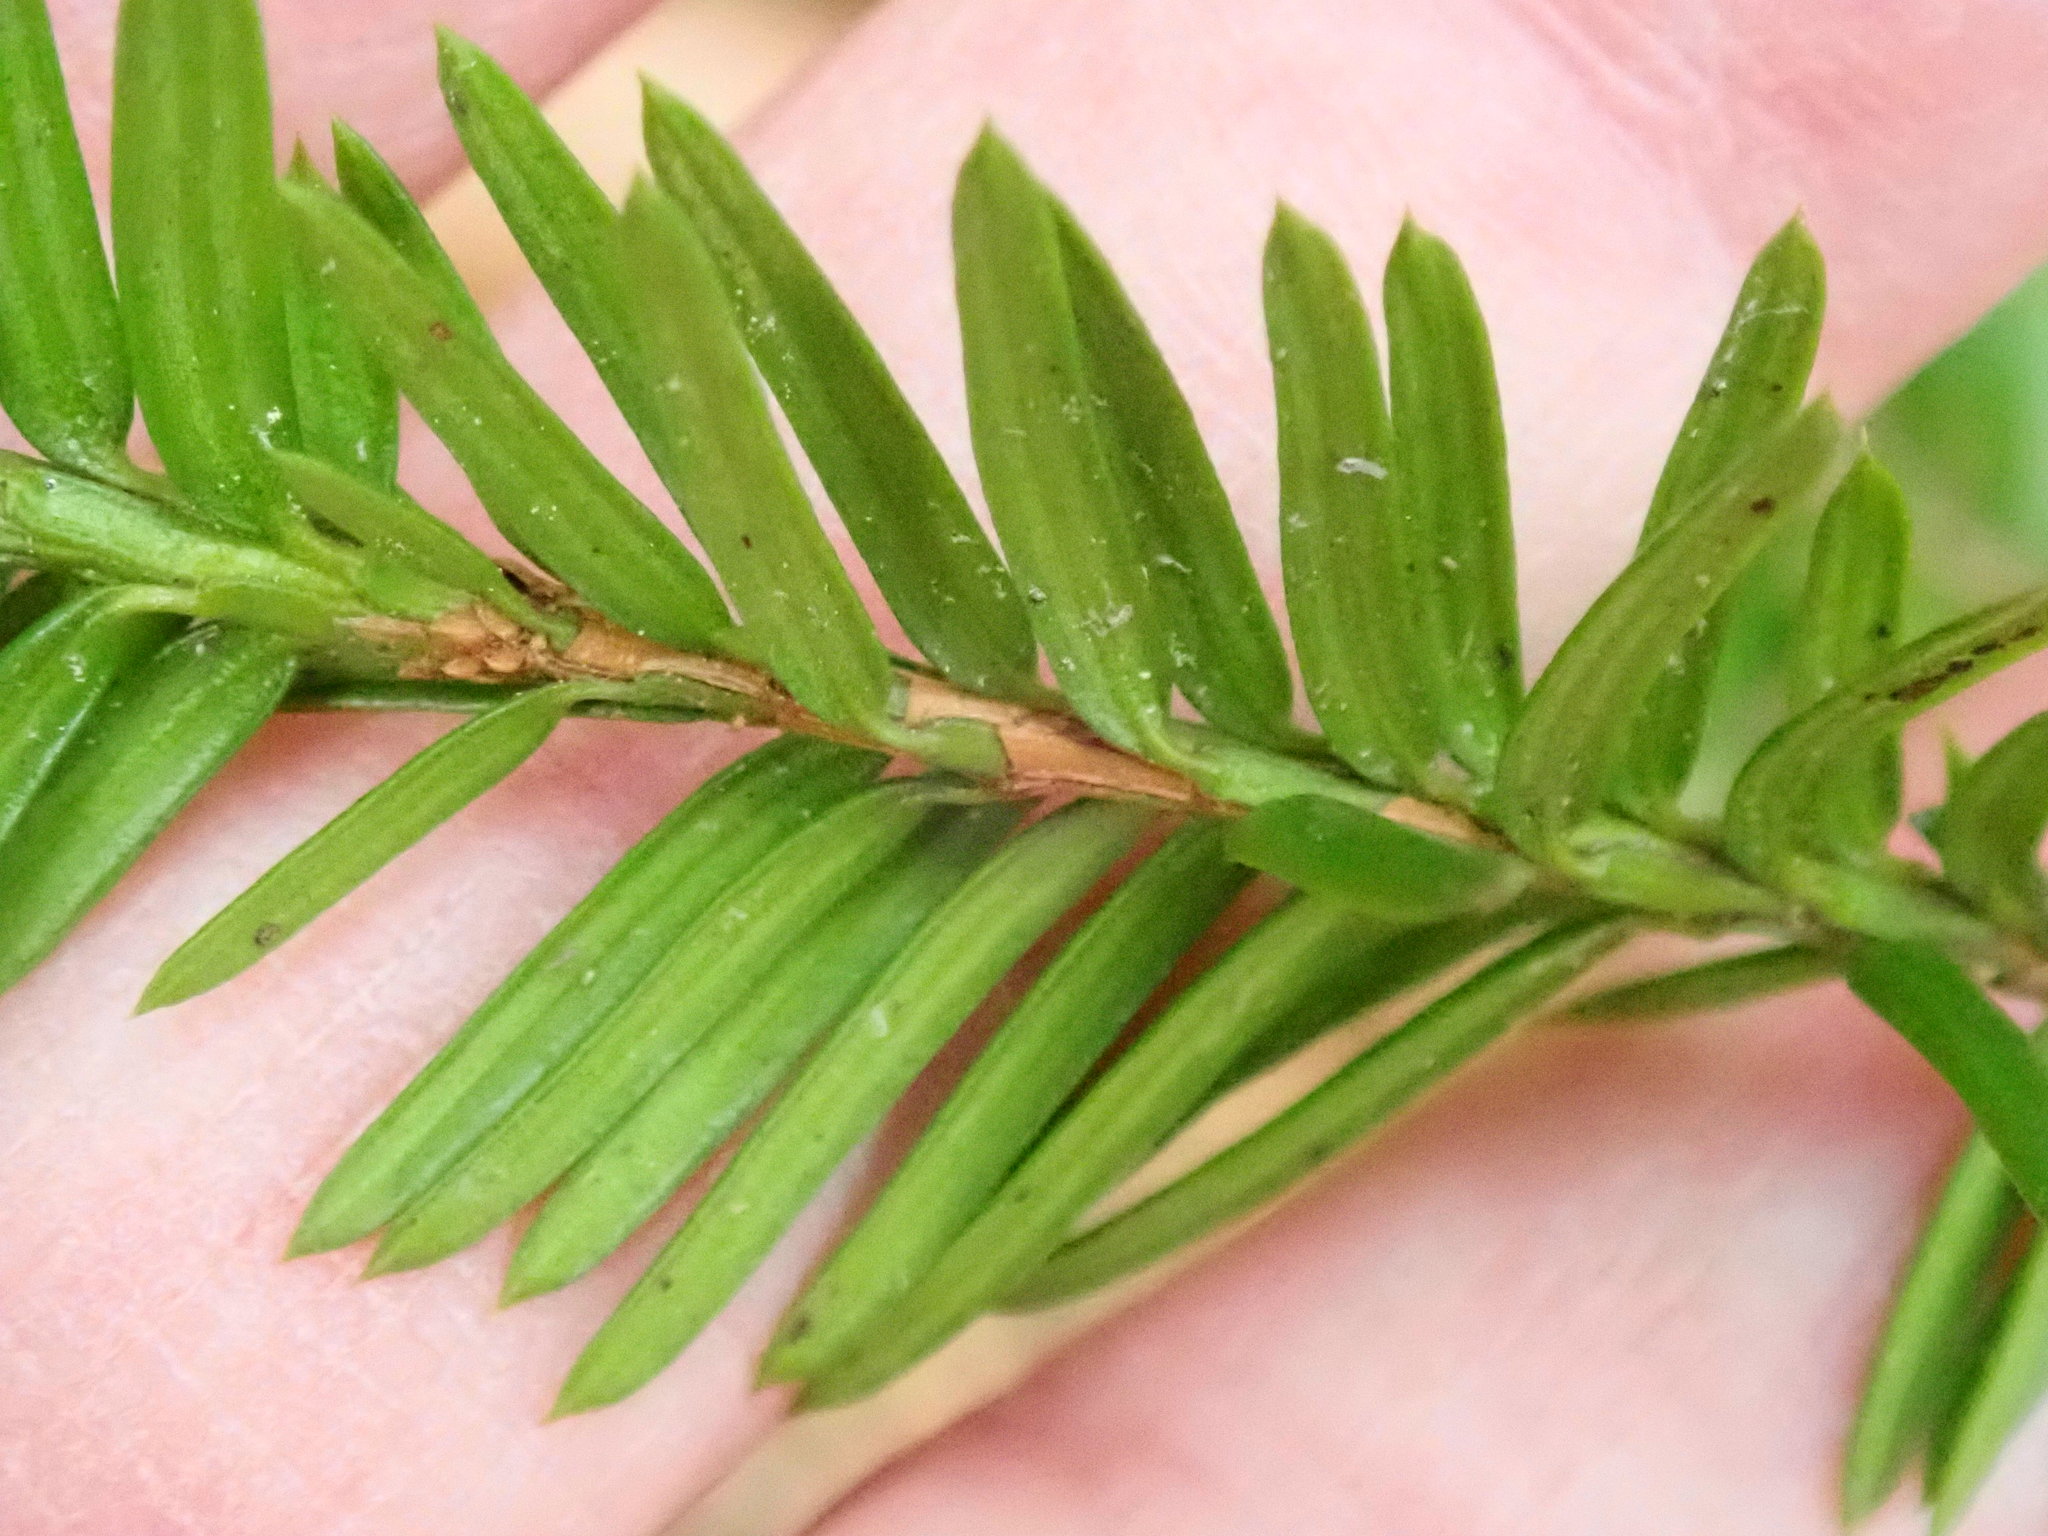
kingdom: Plantae
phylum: Tracheophyta
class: Pinopsida
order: Pinales
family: Taxaceae
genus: Taxus
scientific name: Taxus canadensis
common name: American yew
